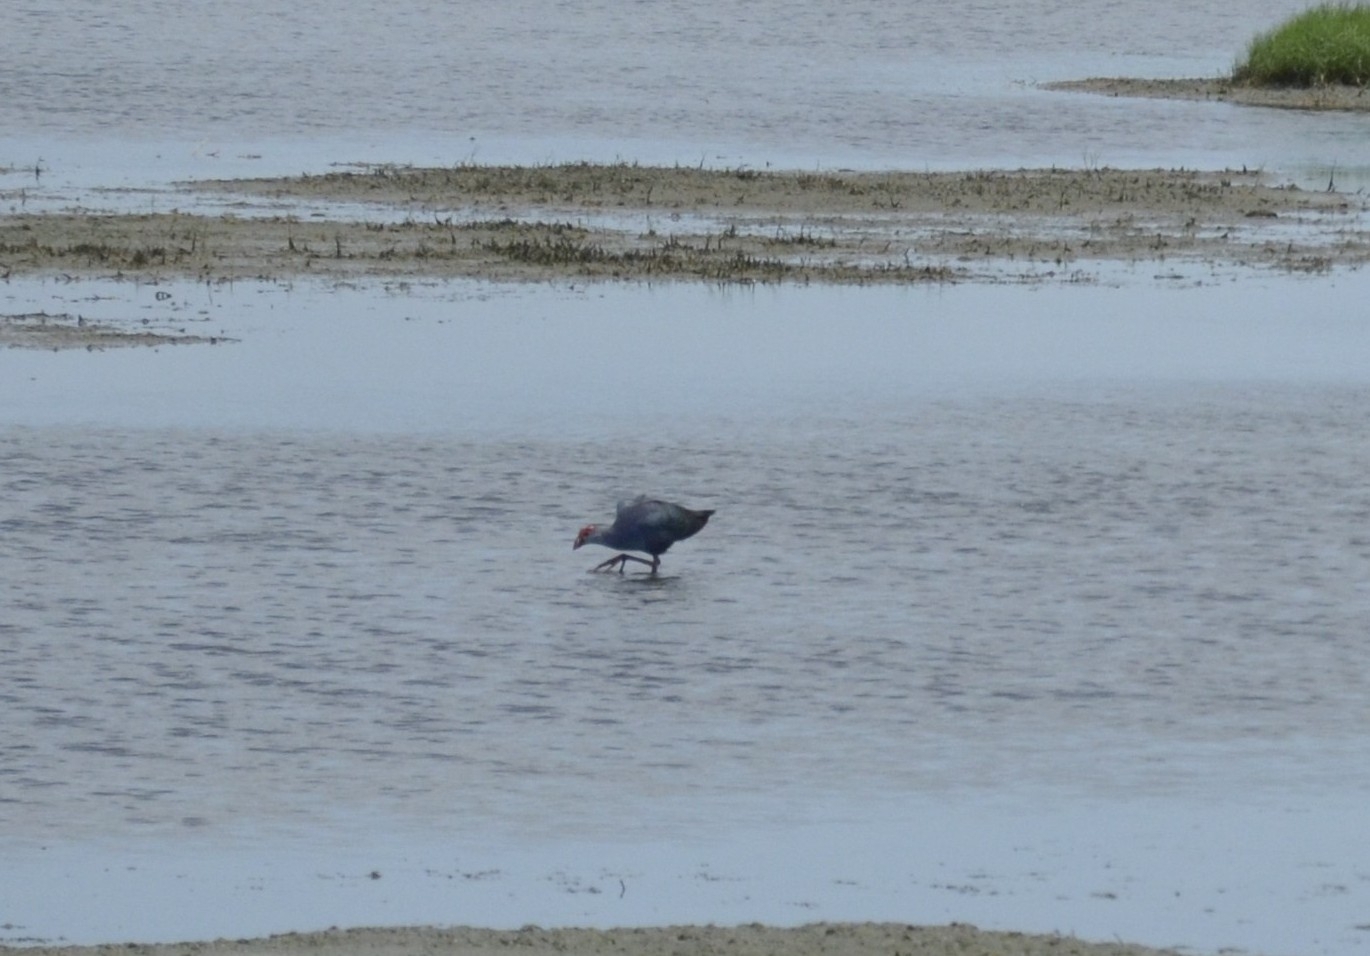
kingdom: Animalia
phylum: Chordata
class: Aves
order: Gruiformes
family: Rallidae
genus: Porphyrio
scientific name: Porphyrio porphyrio
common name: Purple swamphen
